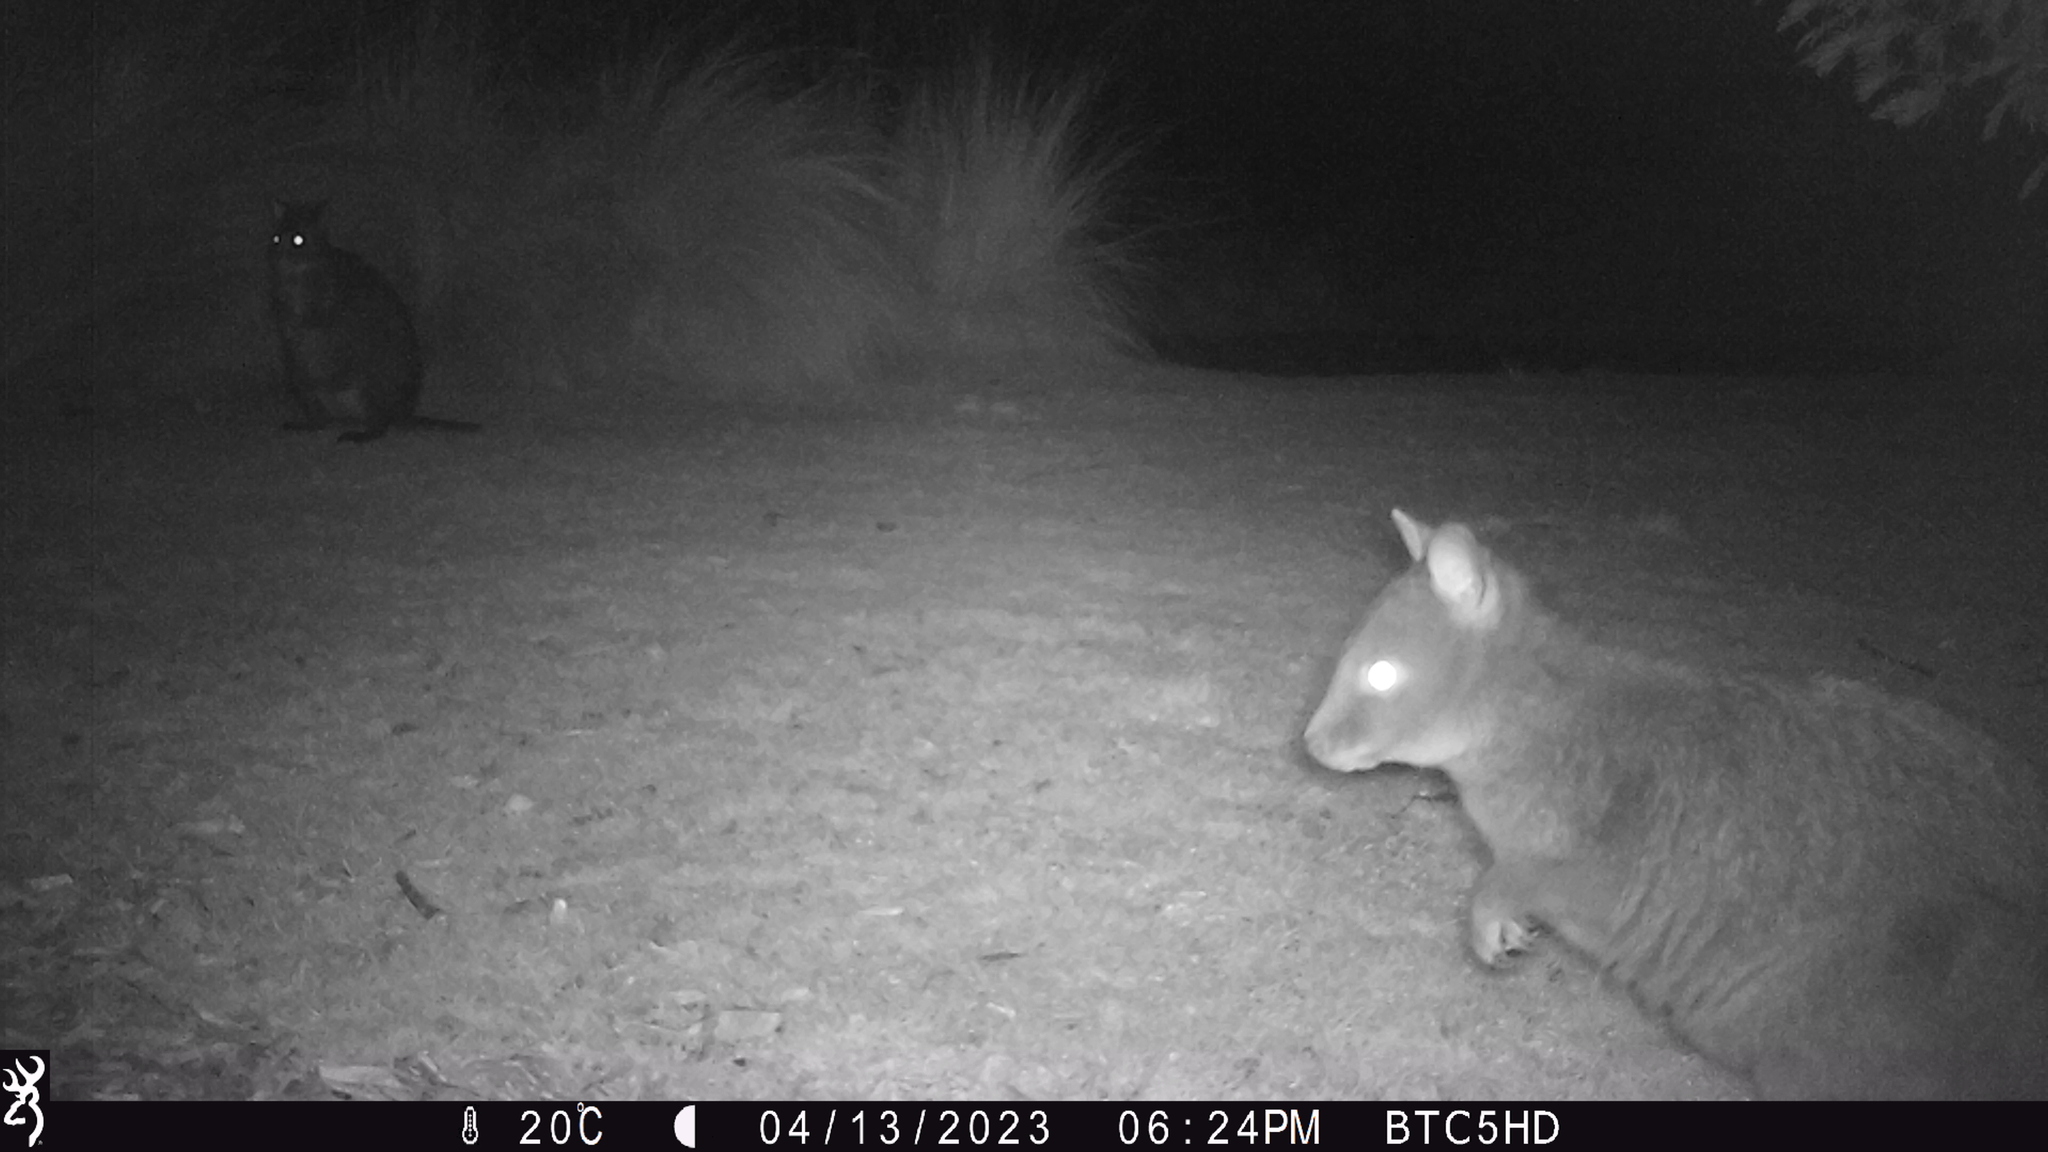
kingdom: Animalia
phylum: Chordata
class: Mammalia
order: Diprotodontia
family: Macropodidae
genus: Thylogale
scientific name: Thylogale billardierii
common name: Tasmanian pademelon
